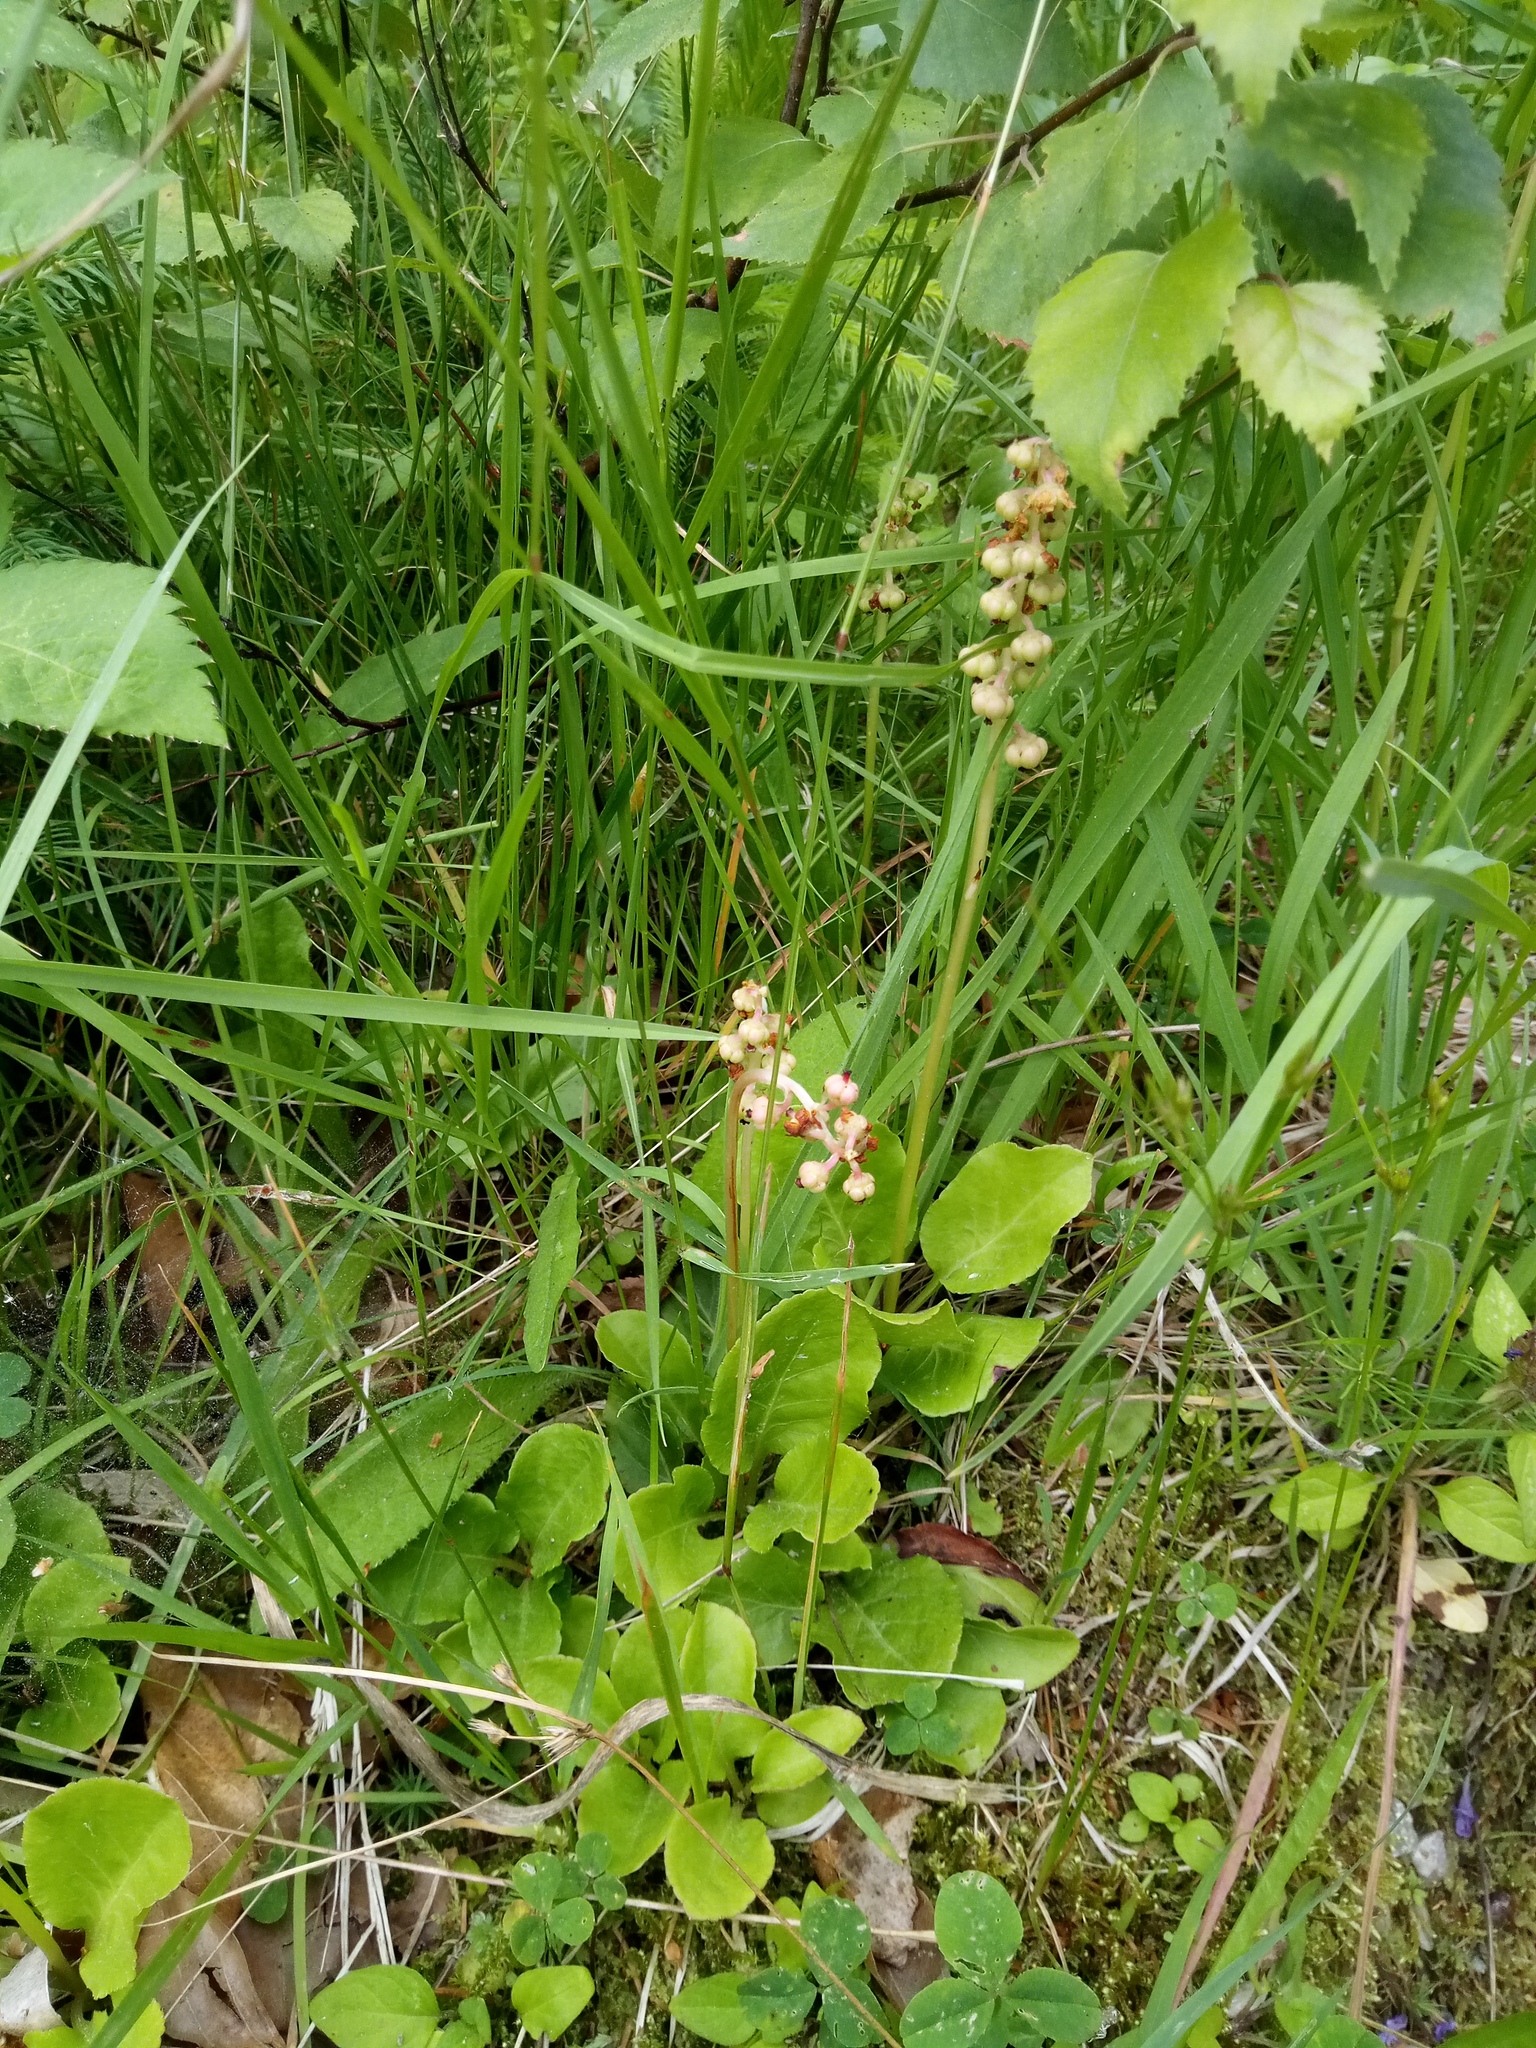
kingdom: Plantae
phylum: Tracheophyta
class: Magnoliopsida
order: Ericales
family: Ericaceae
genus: Pyrola
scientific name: Pyrola minor
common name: Common wintergreen
